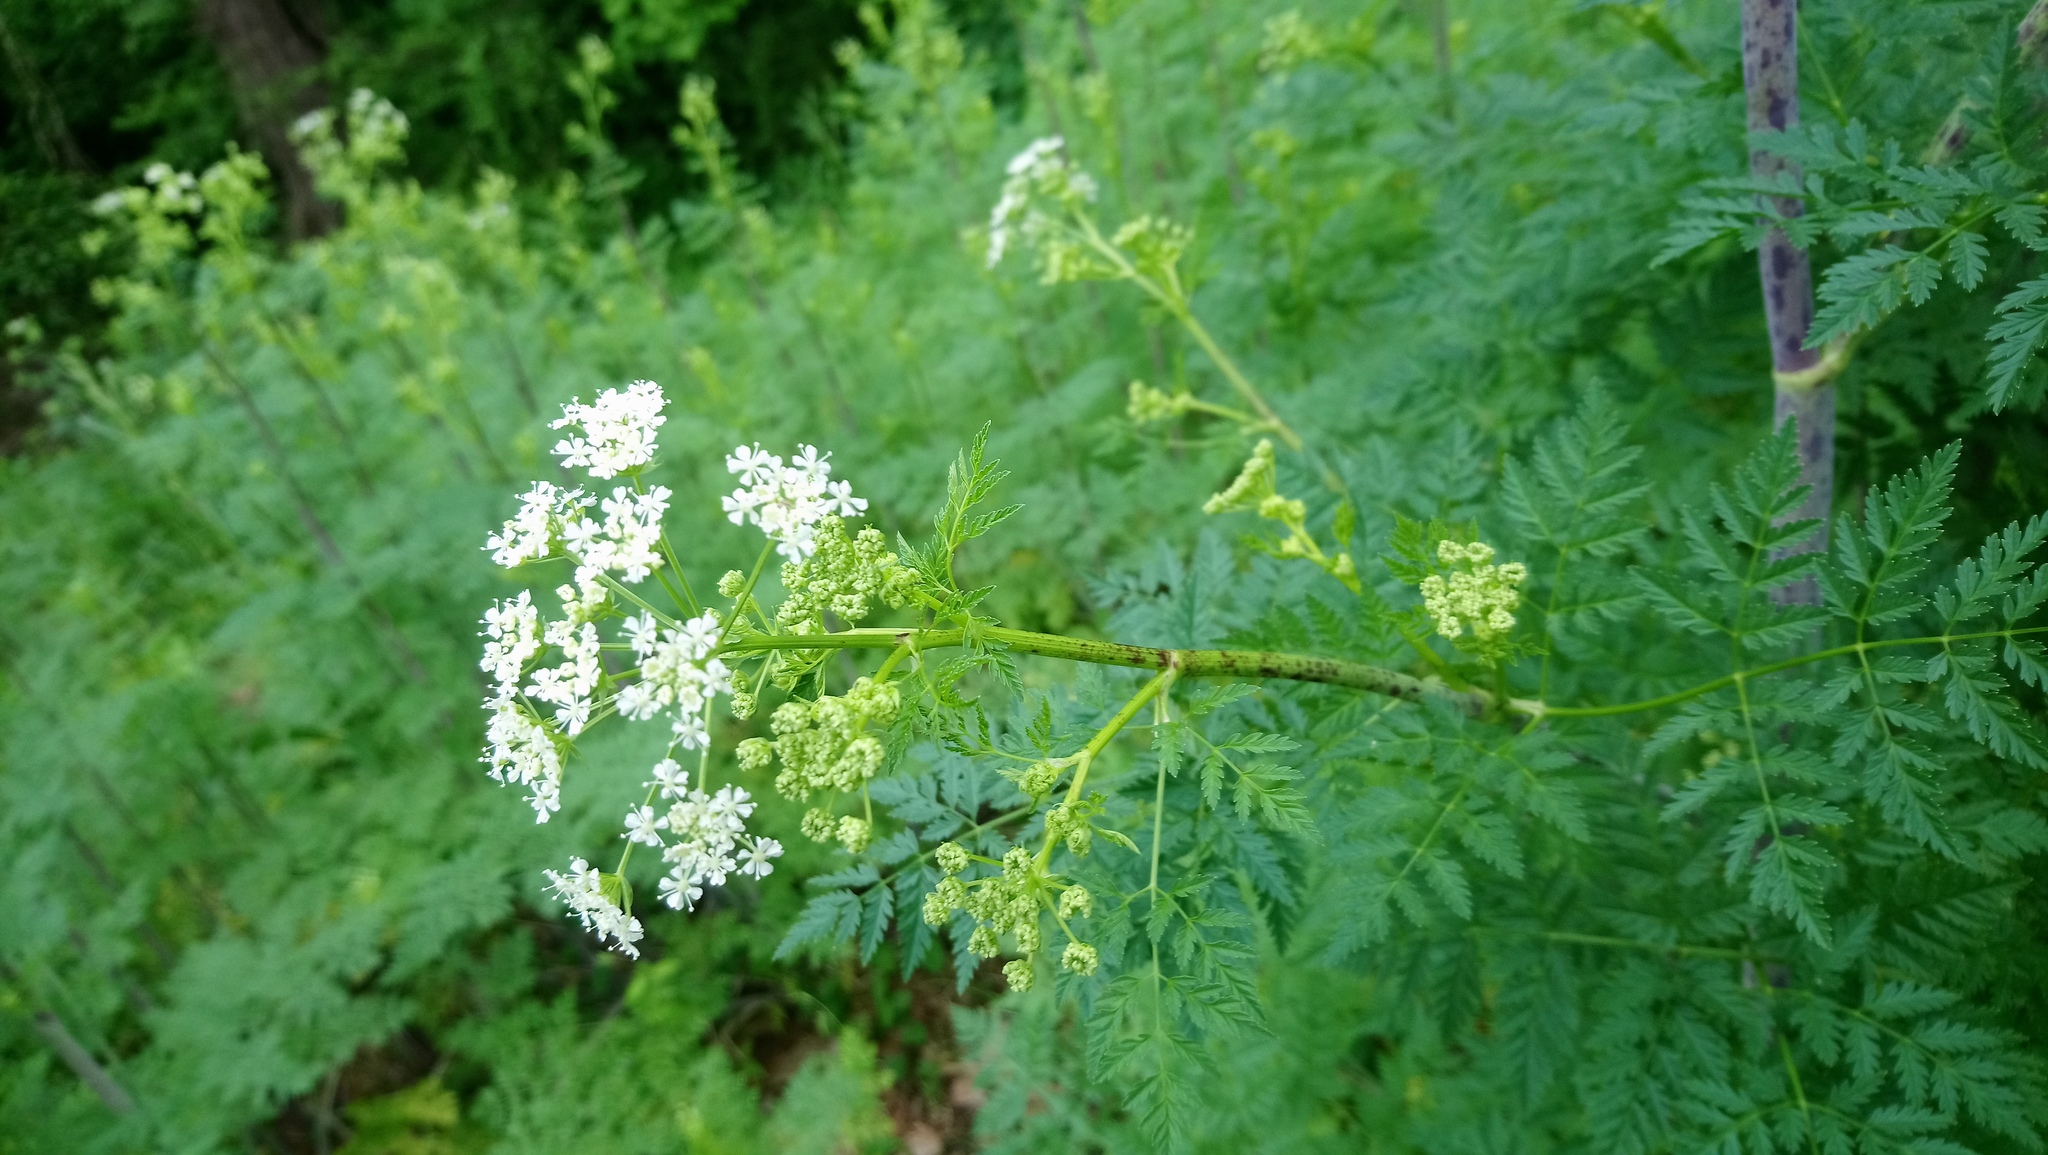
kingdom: Plantae
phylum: Tracheophyta
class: Magnoliopsida
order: Apiales
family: Apiaceae
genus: Conium
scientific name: Conium maculatum
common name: Hemlock
